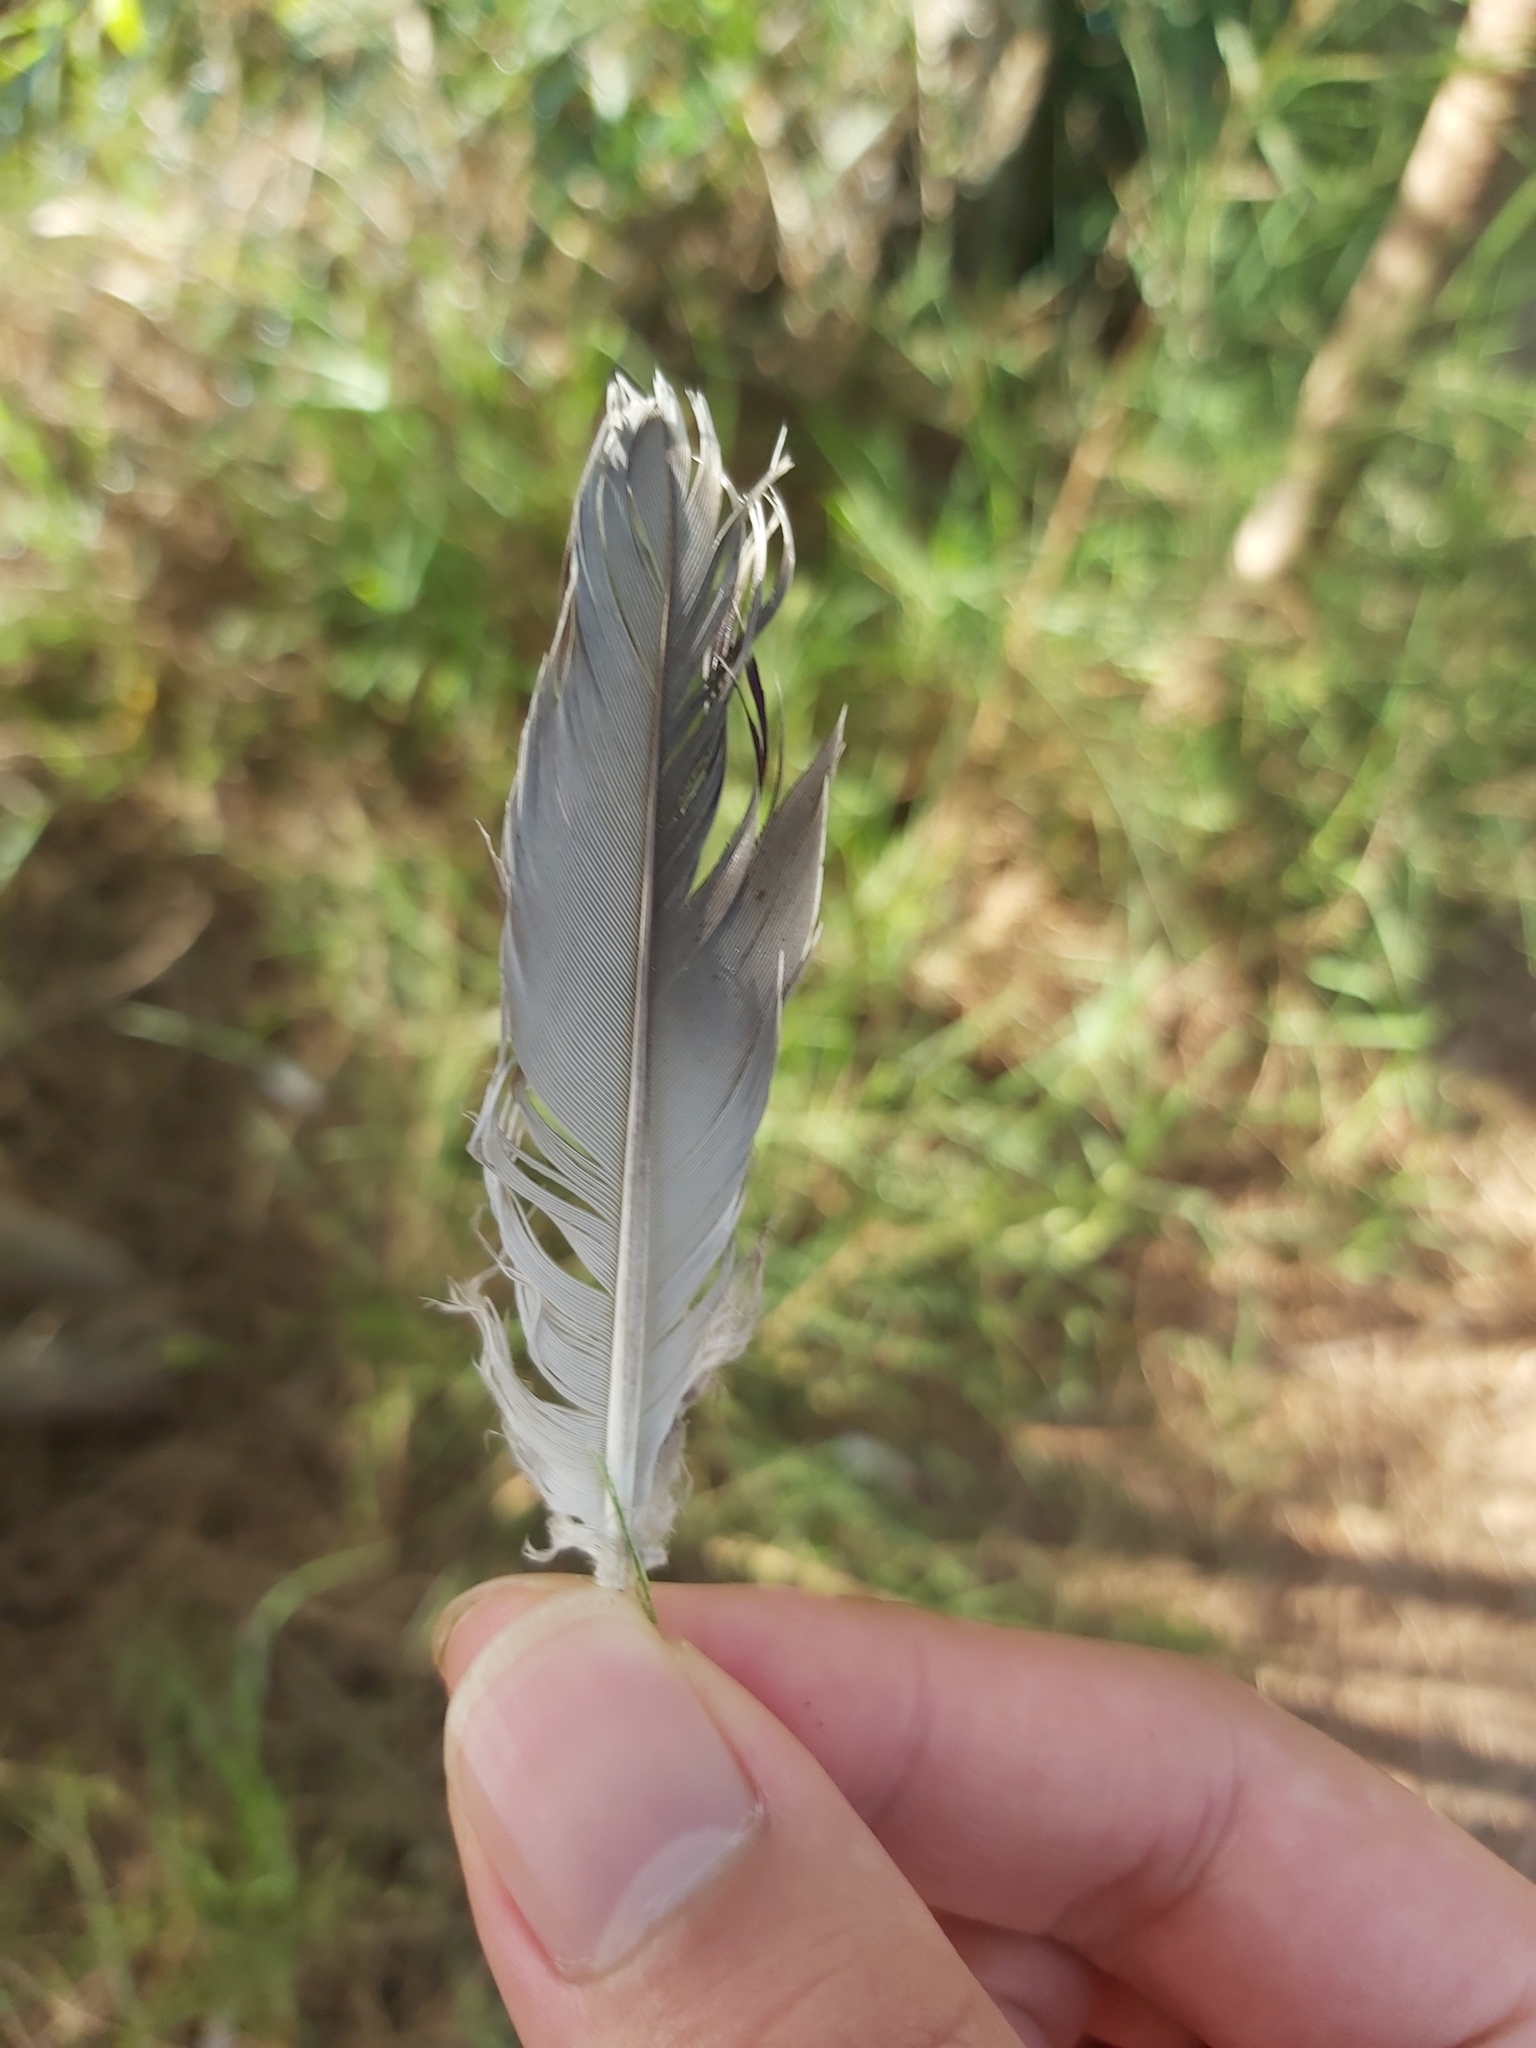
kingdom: Animalia
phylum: Chordata
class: Aves
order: Columbiformes
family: Columbidae
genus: Ocyphaps
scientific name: Ocyphaps lophotes
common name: Crested pigeon
